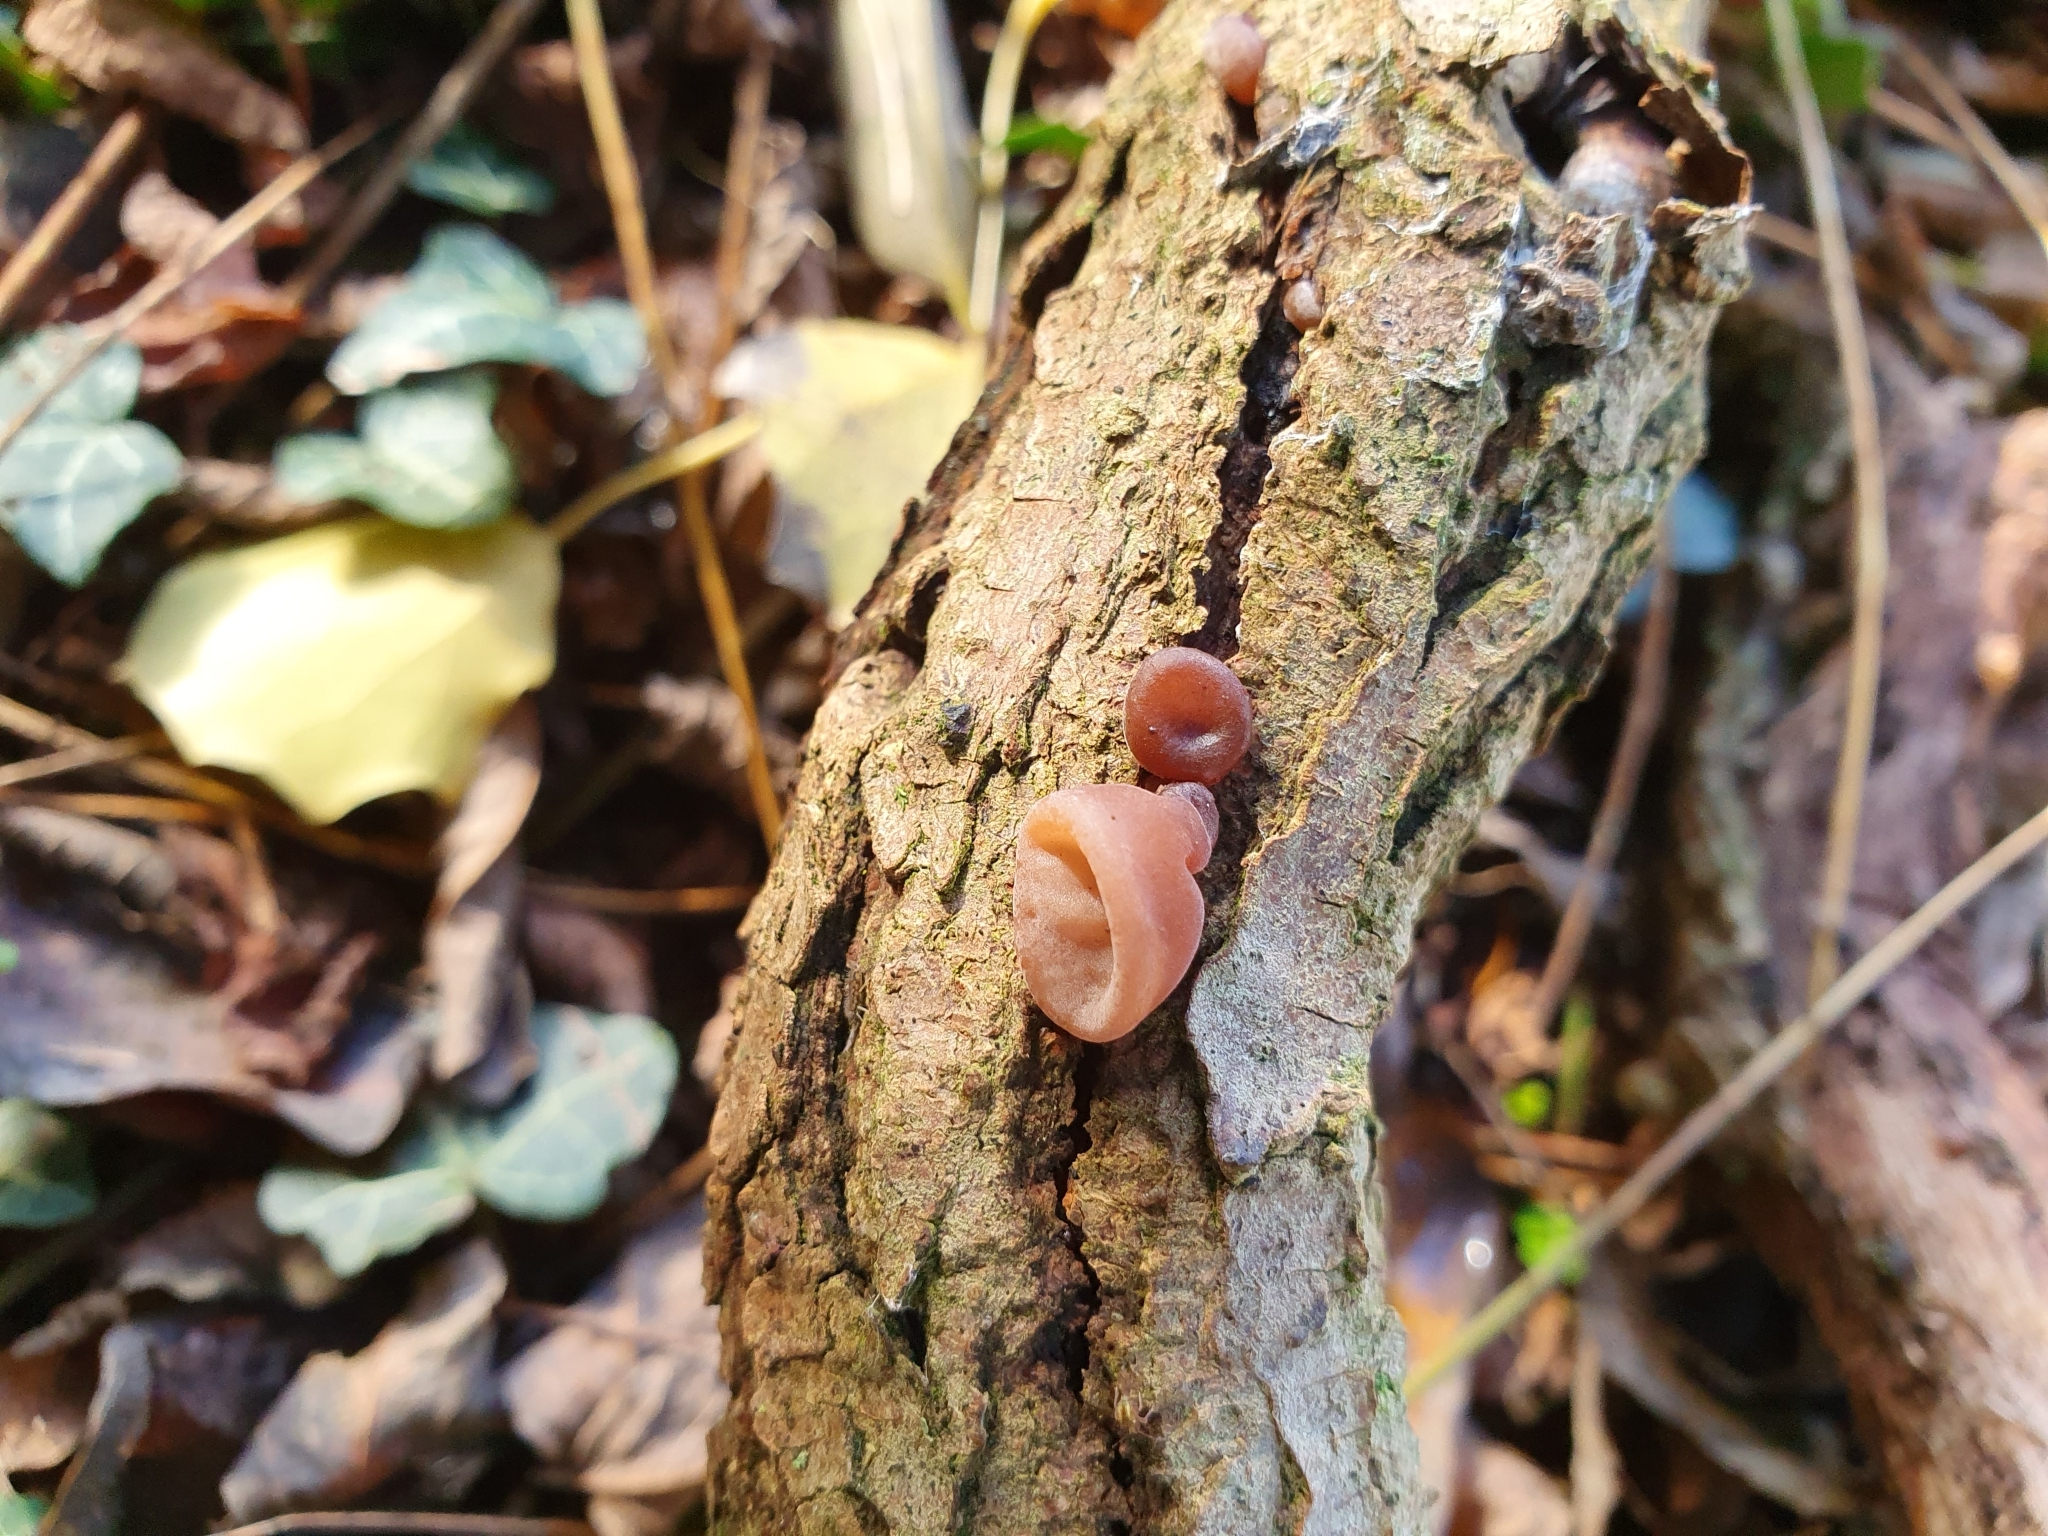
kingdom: Fungi
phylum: Basidiomycota
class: Agaricomycetes
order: Auriculariales
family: Auriculariaceae
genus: Auricularia
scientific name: Auricularia auricula-judae
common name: Jelly ear
